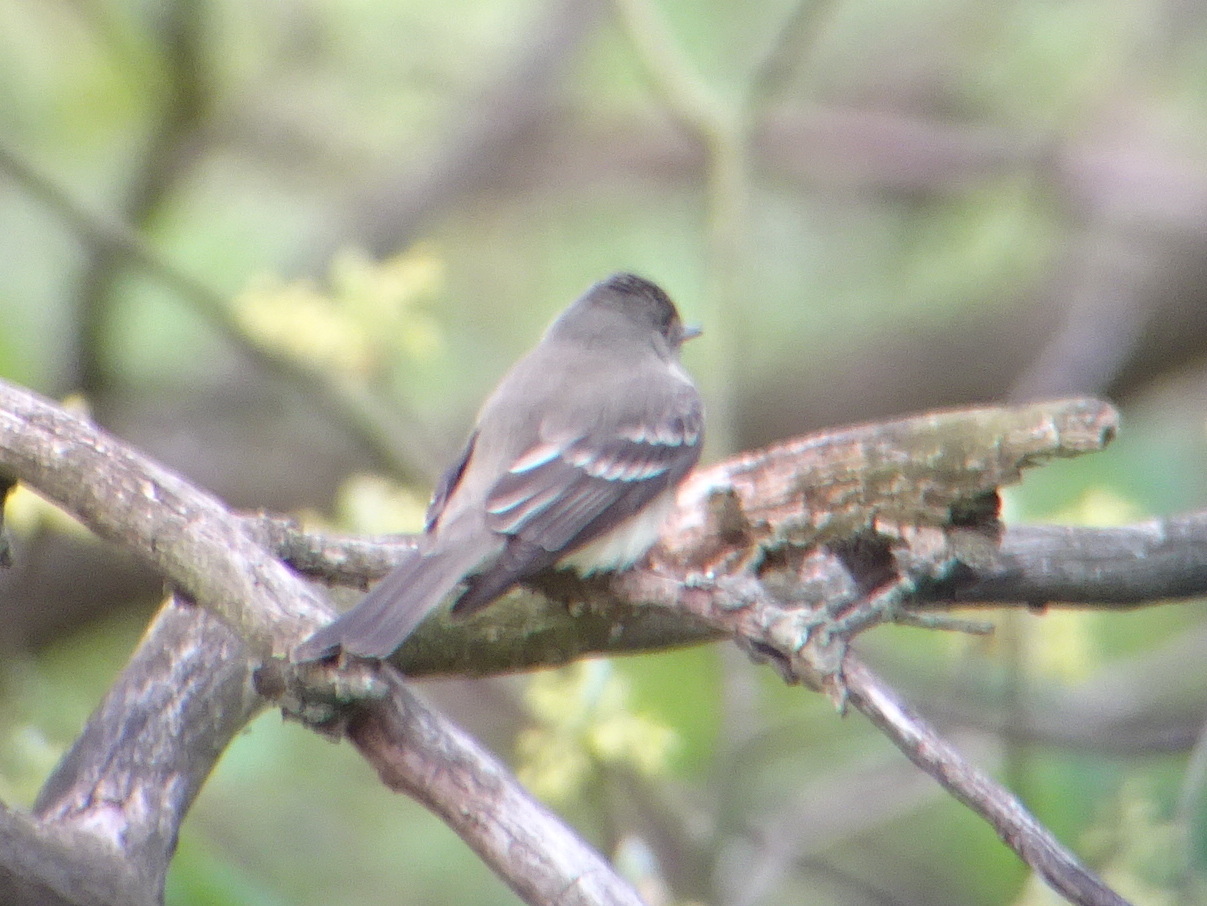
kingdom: Animalia
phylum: Chordata
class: Aves
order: Passeriformes
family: Tyrannidae
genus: Contopus
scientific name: Contopus virens
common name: Eastern wood-pewee
